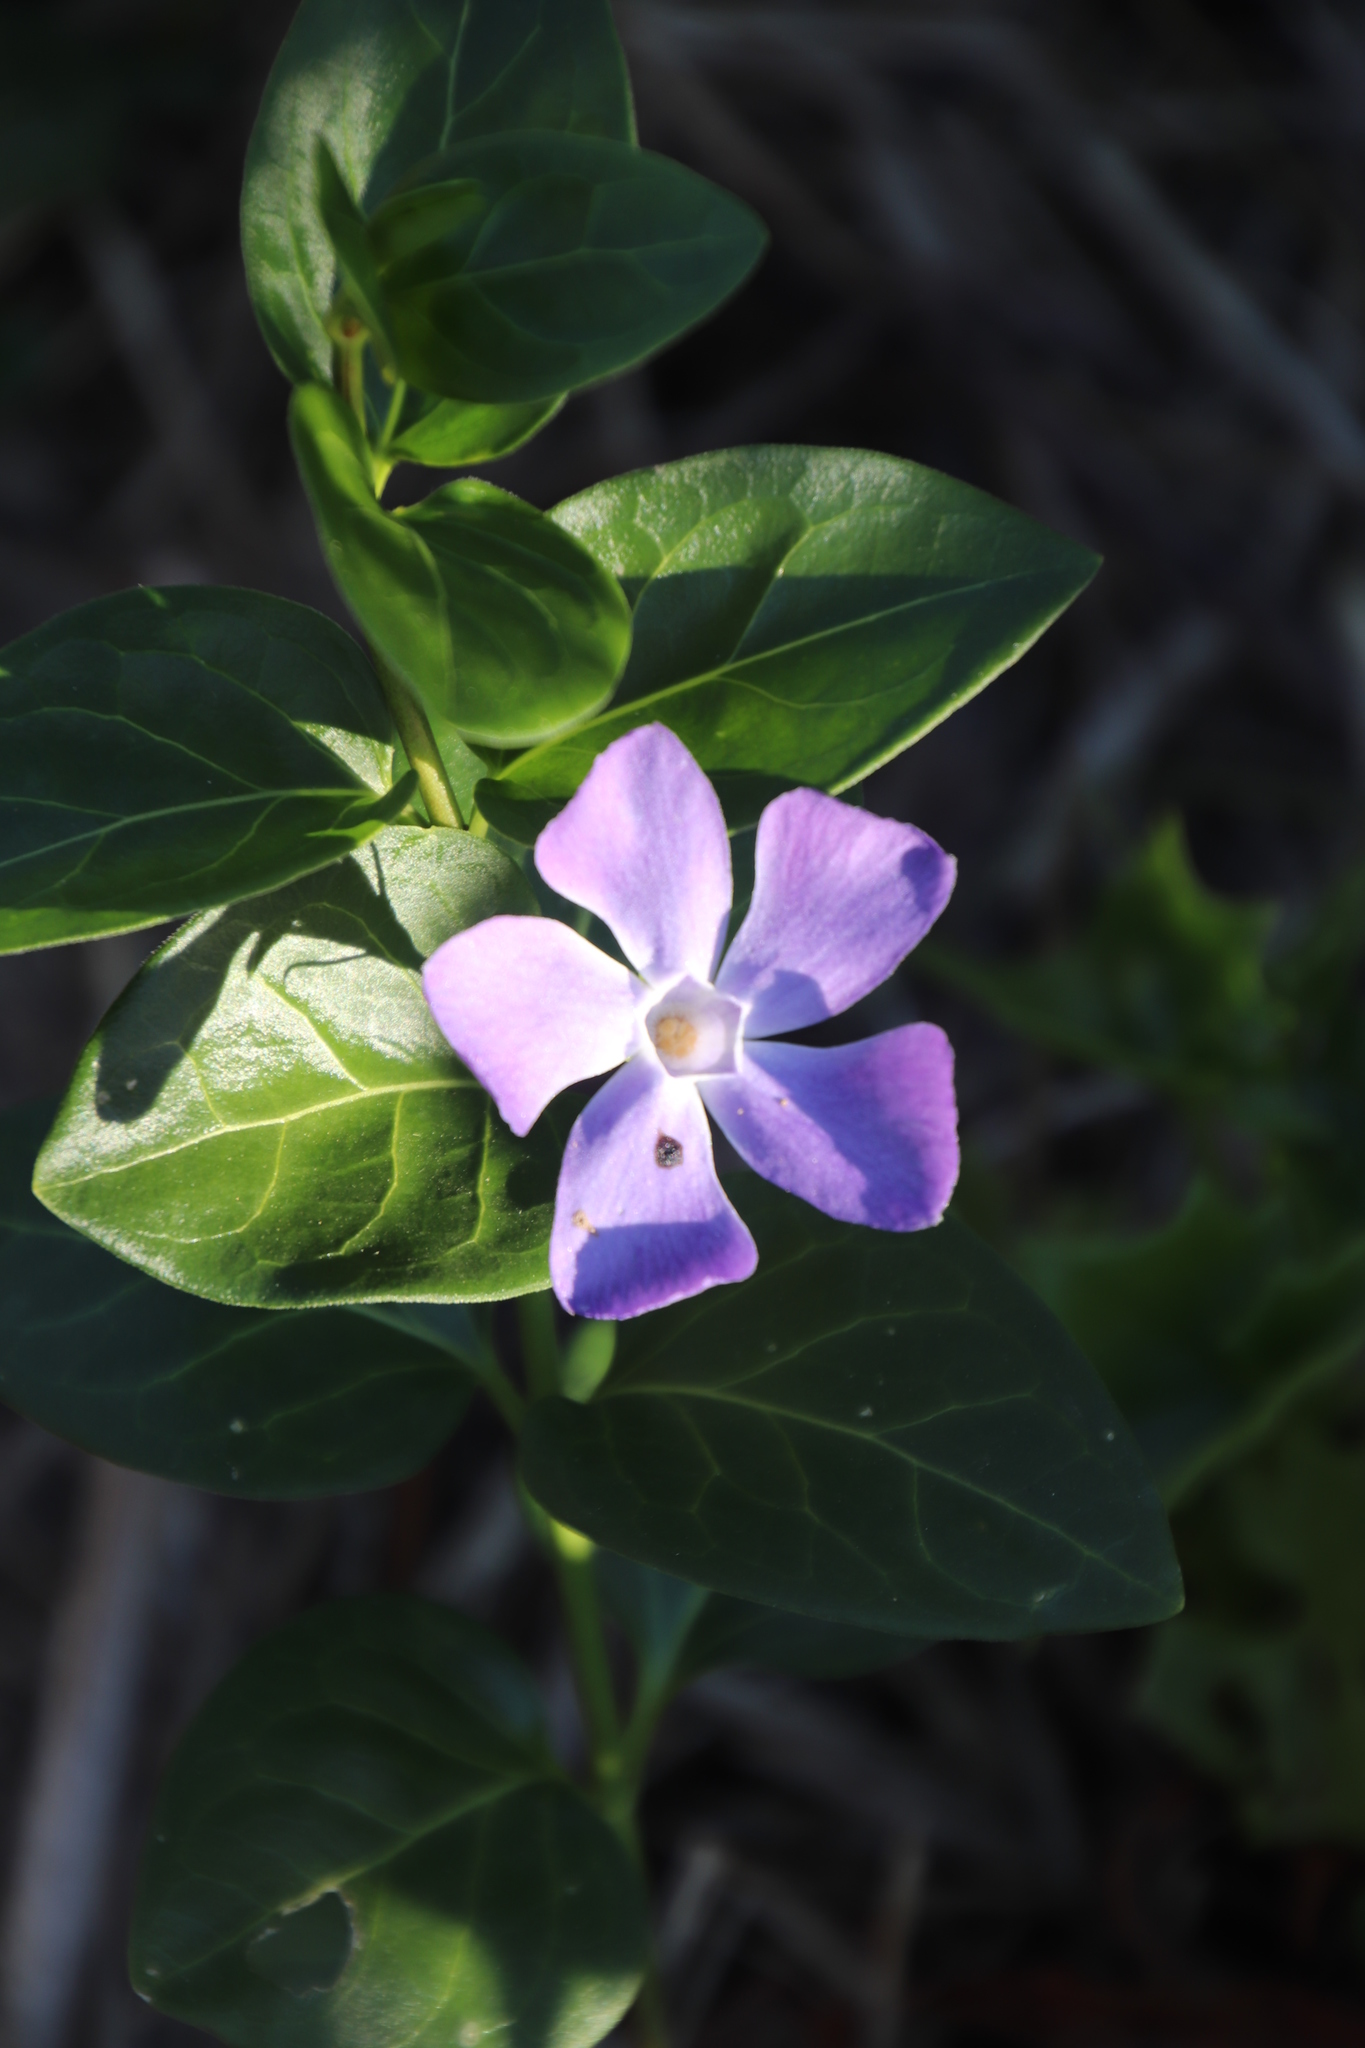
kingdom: Plantae
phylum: Tracheophyta
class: Magnoliopsida
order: Gentianales
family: Apocynaceae
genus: Vinca
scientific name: Vinca major
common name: Greater periwinkle
